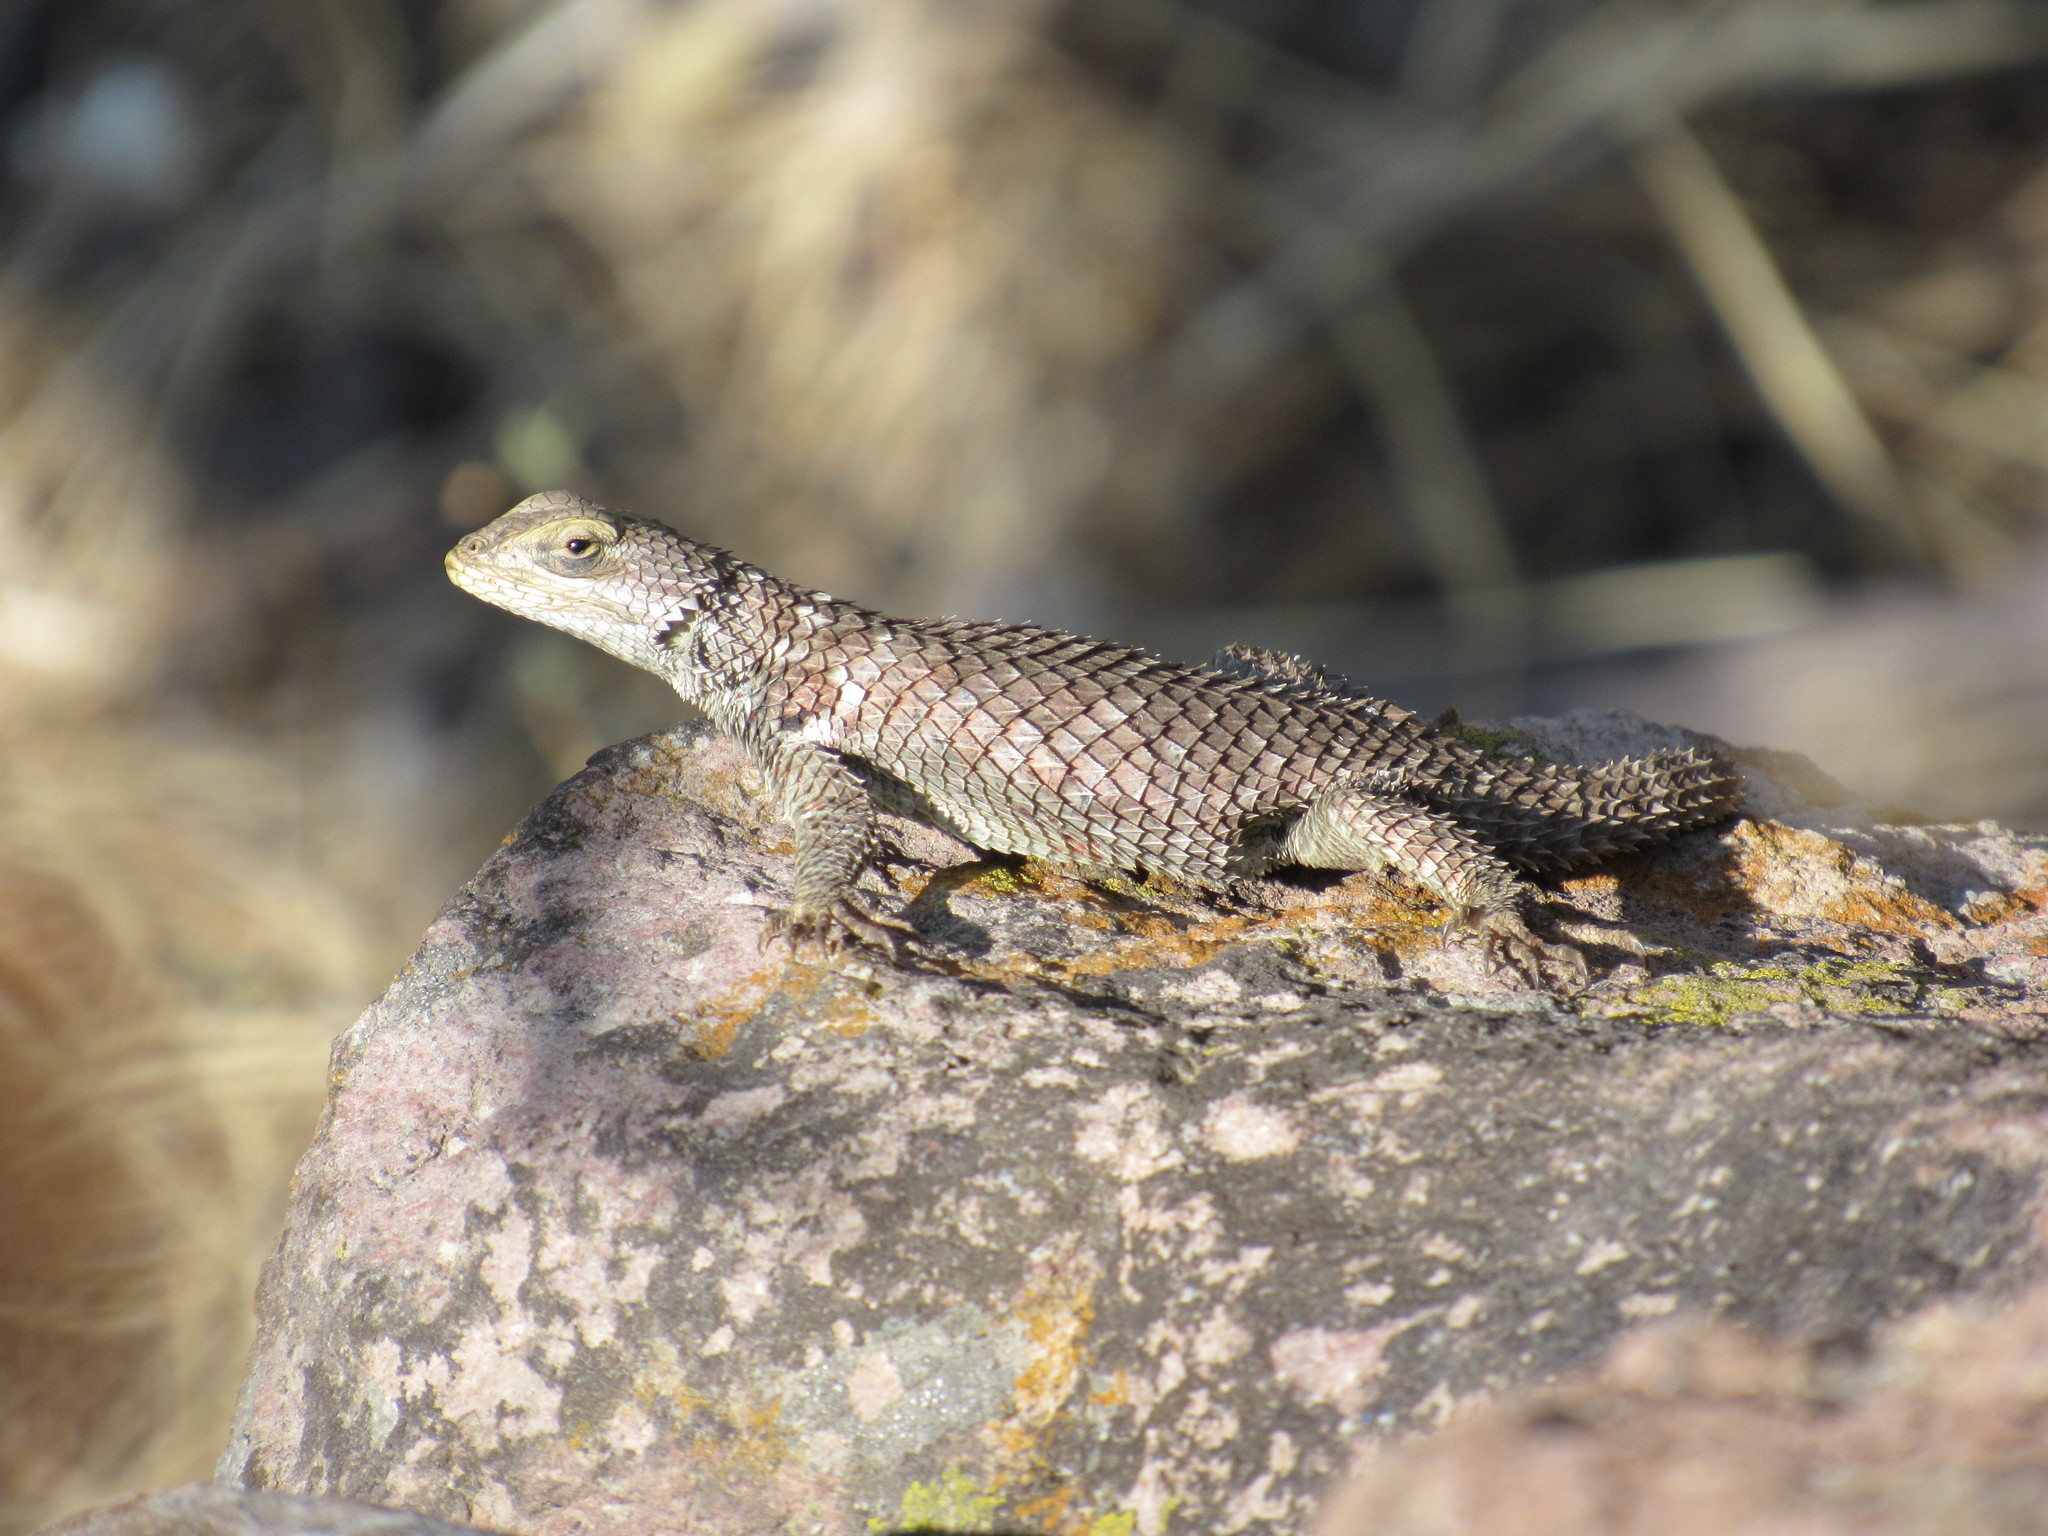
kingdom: Animalia
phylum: Chordata
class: Squamata
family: Phrynosomatidae
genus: Sceloporus
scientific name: Sceloporus torquatus
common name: Central plateau torquate lizard [melanogaster]
